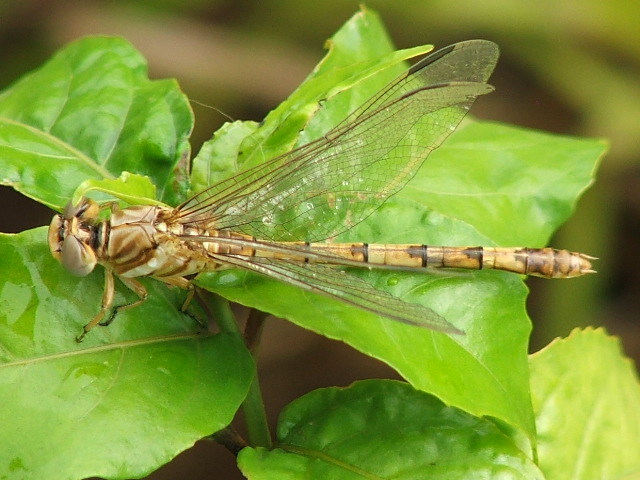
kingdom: Animalia
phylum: Arthropoda
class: Insecta
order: Odonata
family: Gomphidae
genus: Crenigomphus
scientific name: Crenigomphus hartmanni
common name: Clubbed talontail
